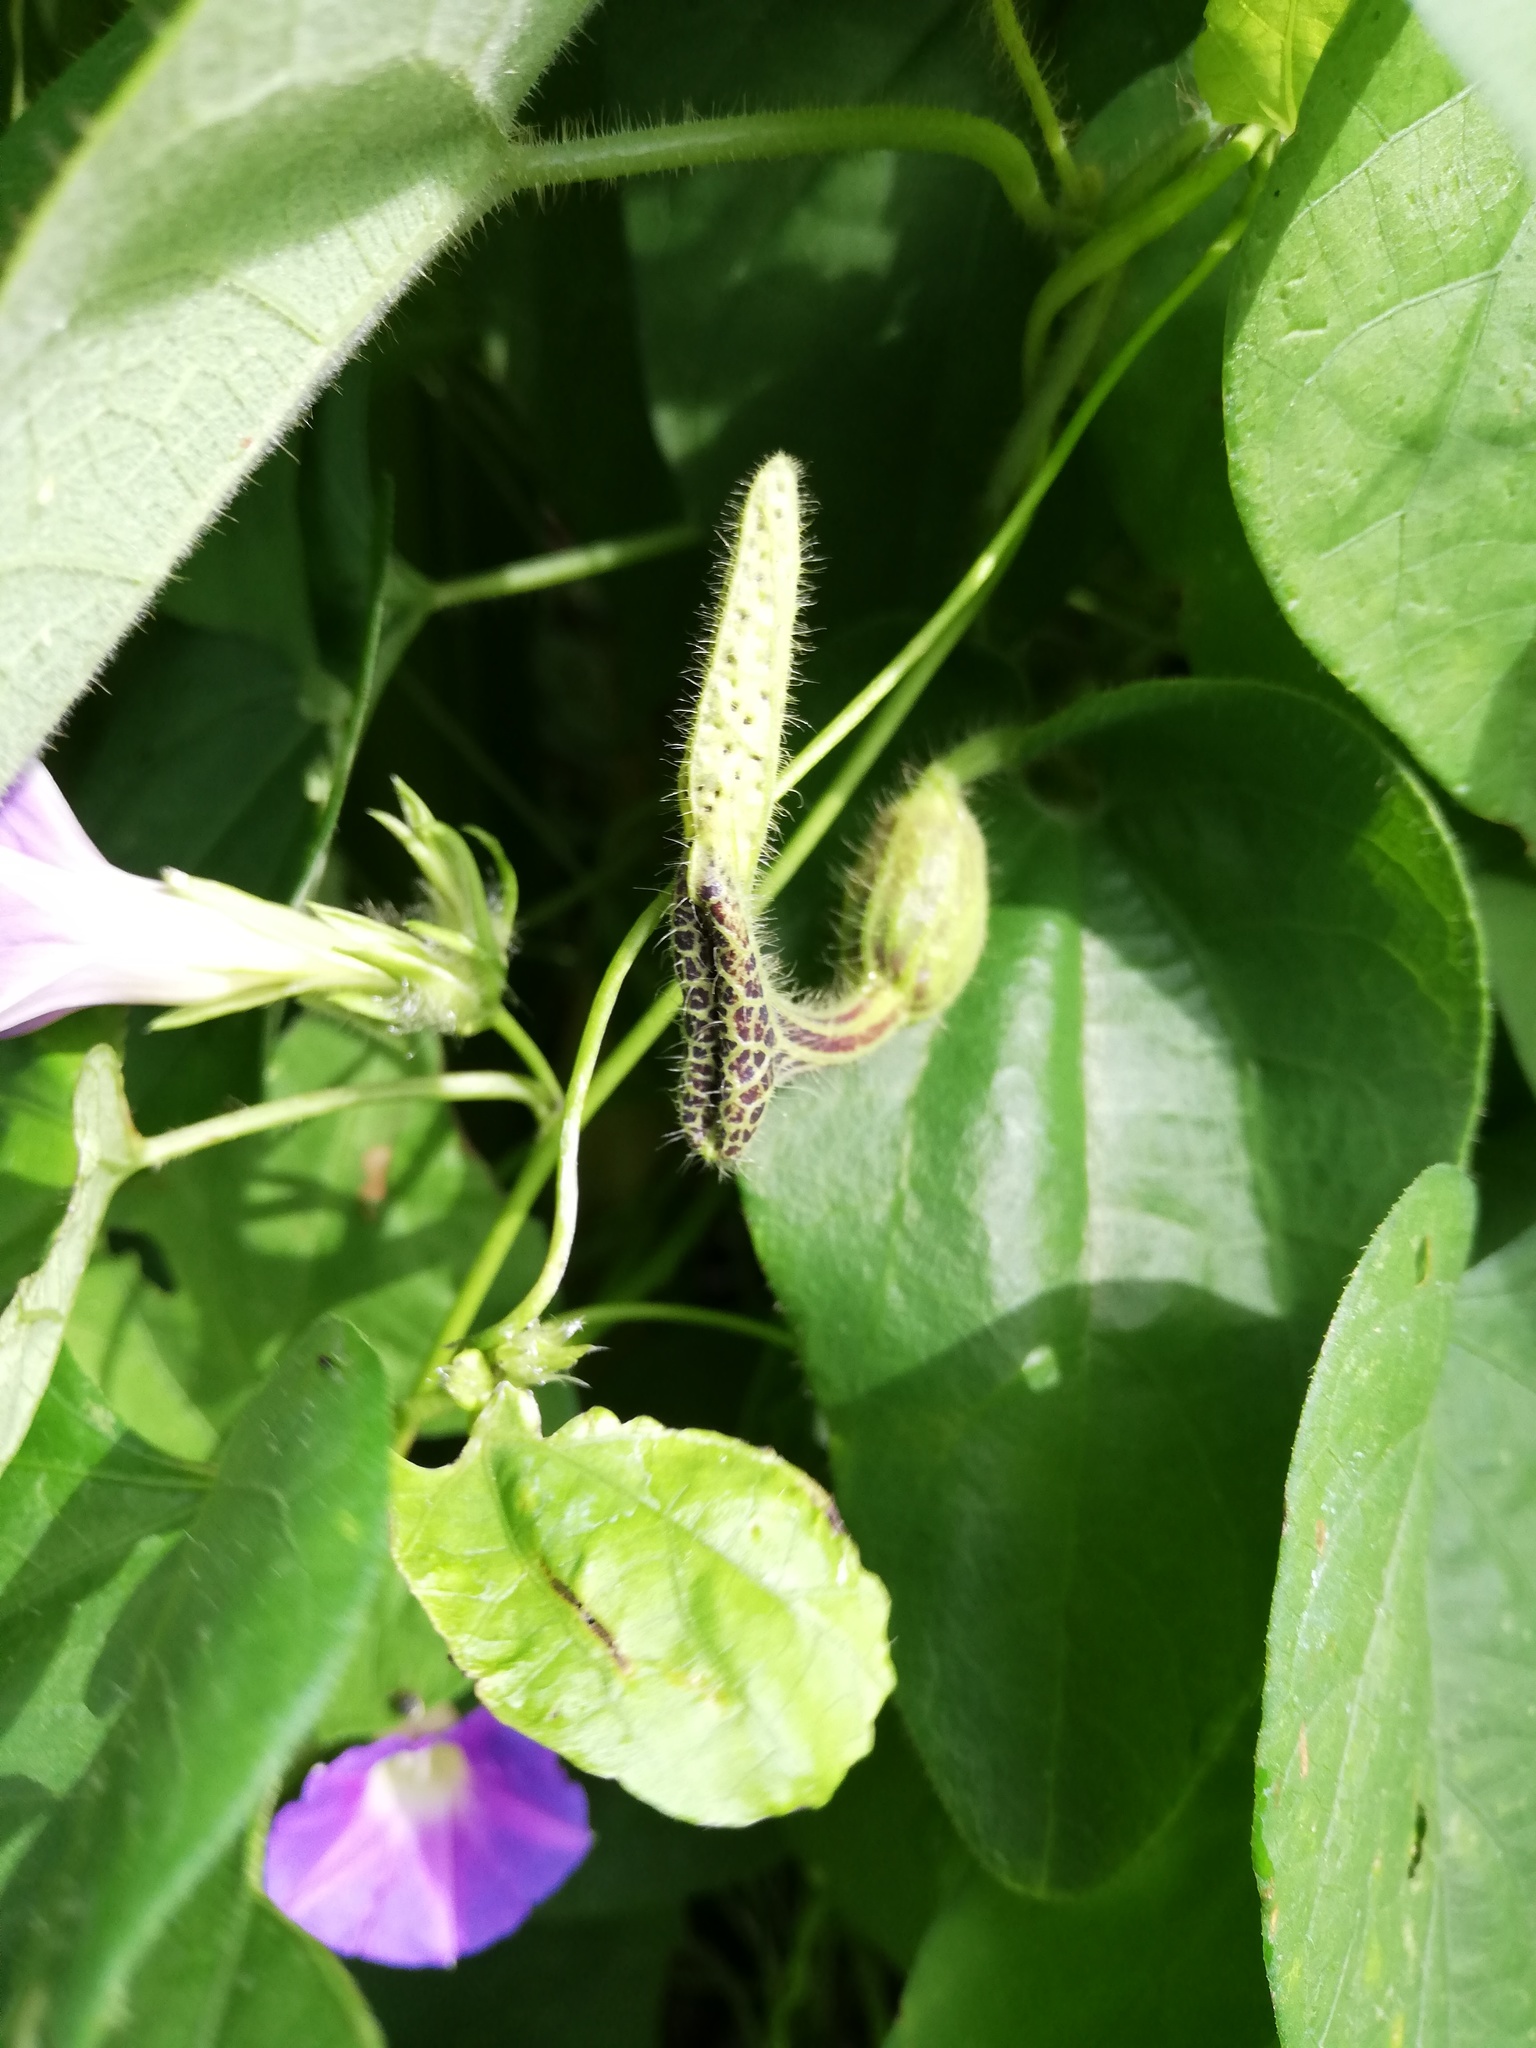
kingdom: Plantae
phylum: Tracheophyta
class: Magnoliopsida
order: Piperales
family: Aristolochiaceae
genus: Aristolochia
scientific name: Aristolochia pilosa
